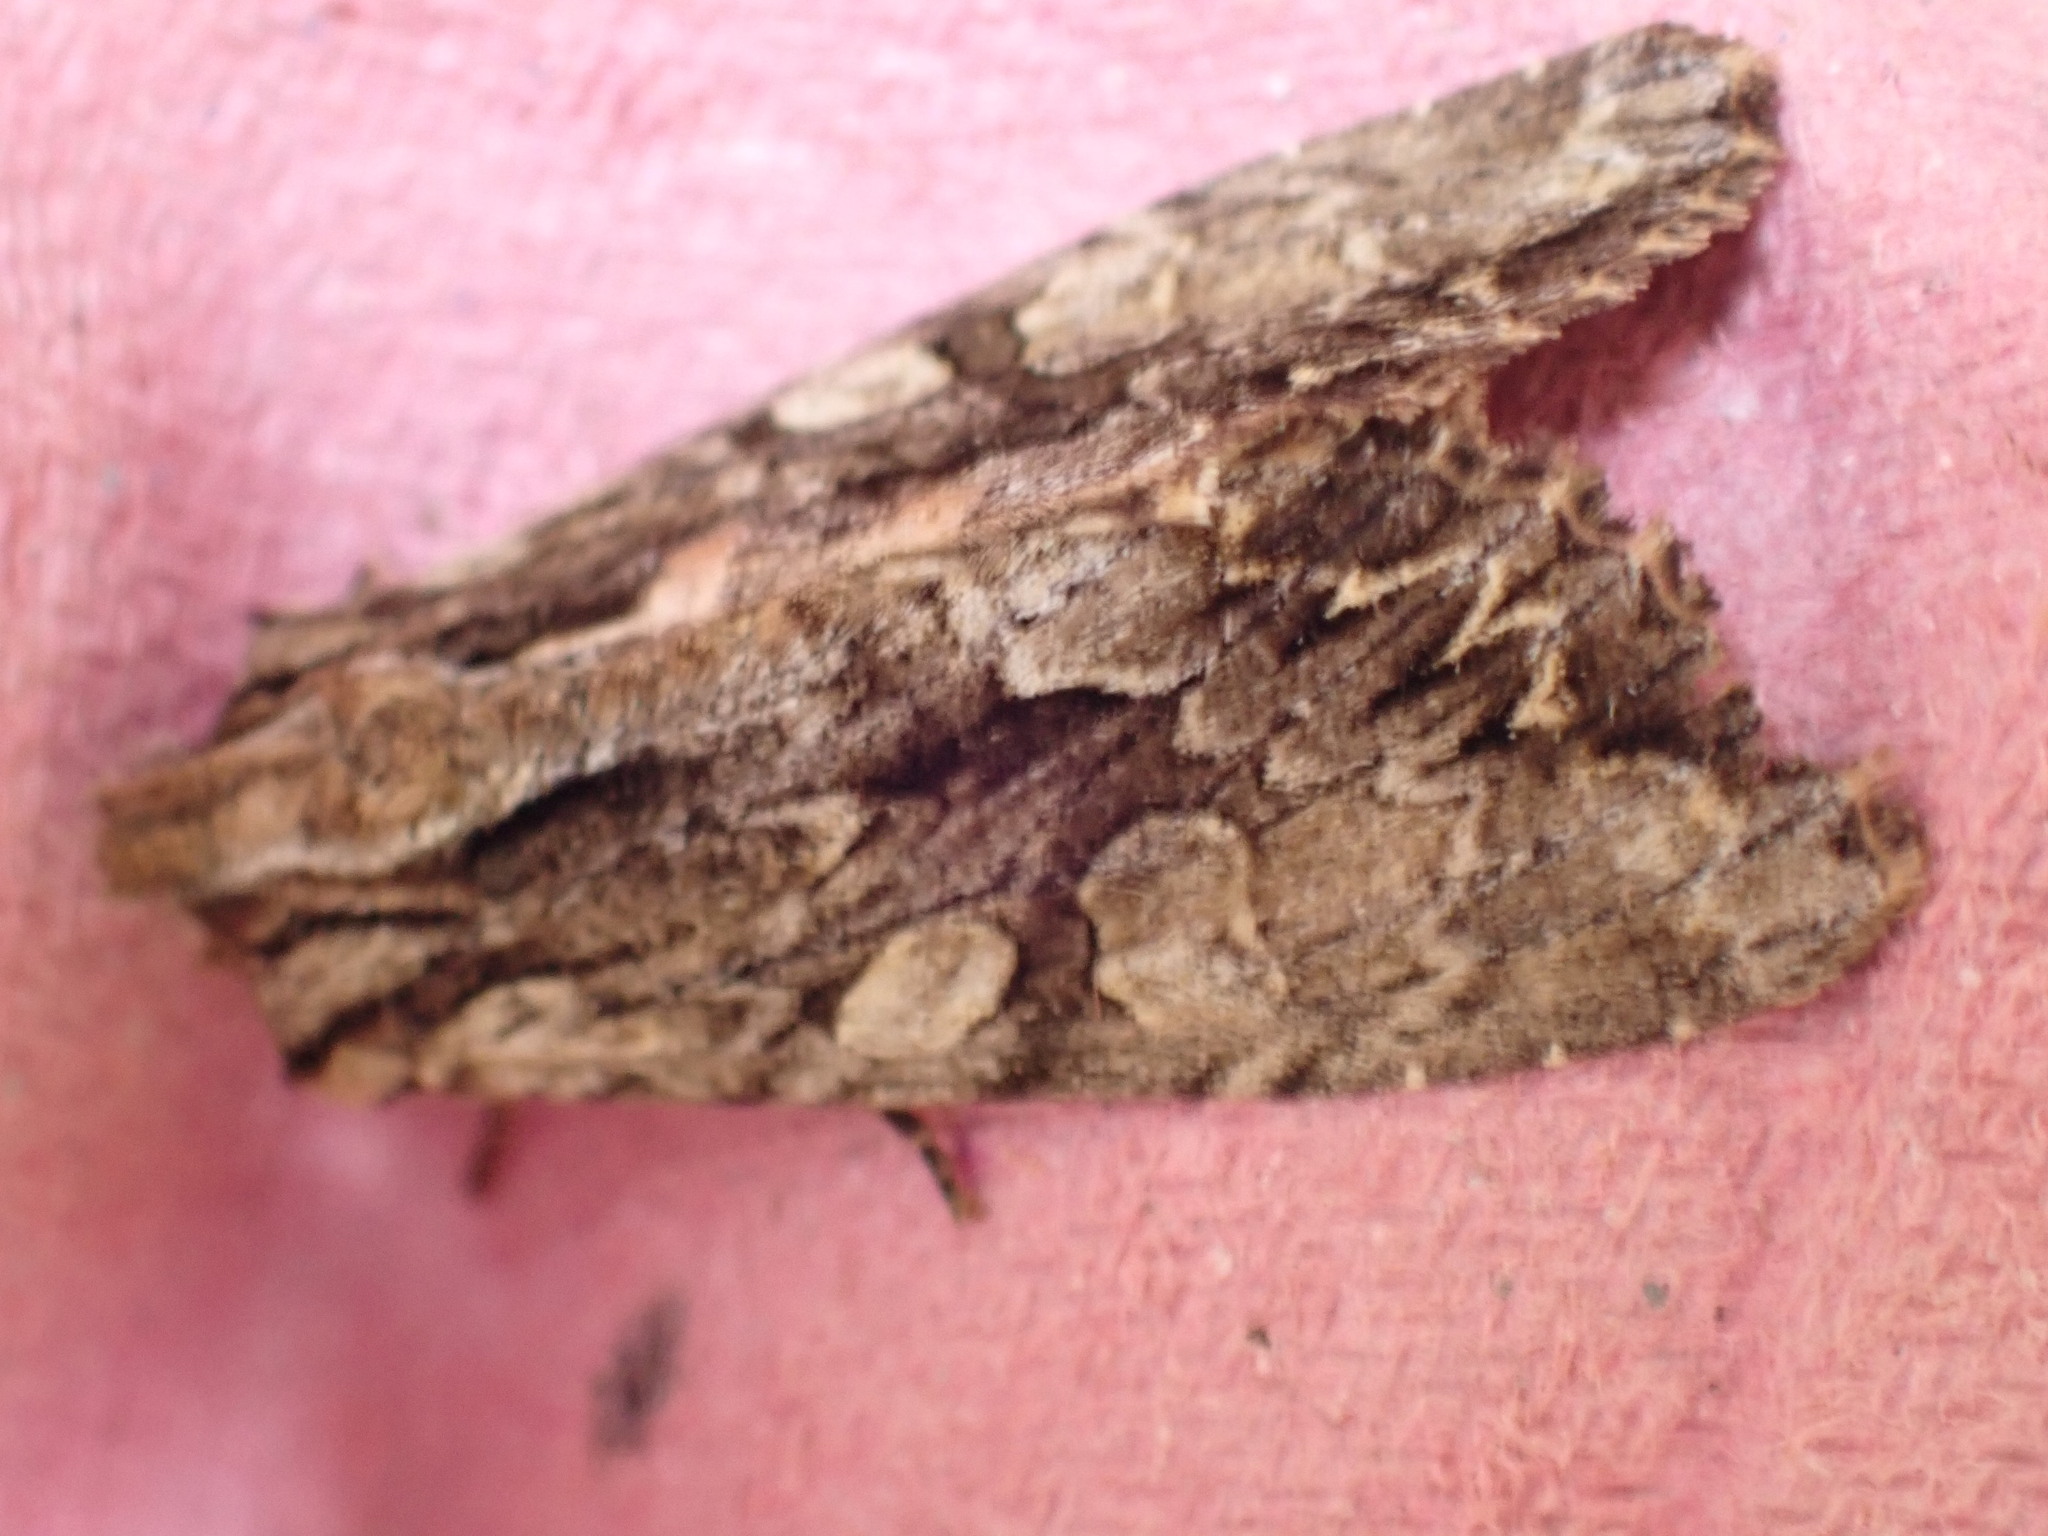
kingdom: Animalia
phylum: Arthropoda
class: Insecta
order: Lepidoptera
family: Noctuidae
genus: Apamea
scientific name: Apamea monoglypha
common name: Dark arches
